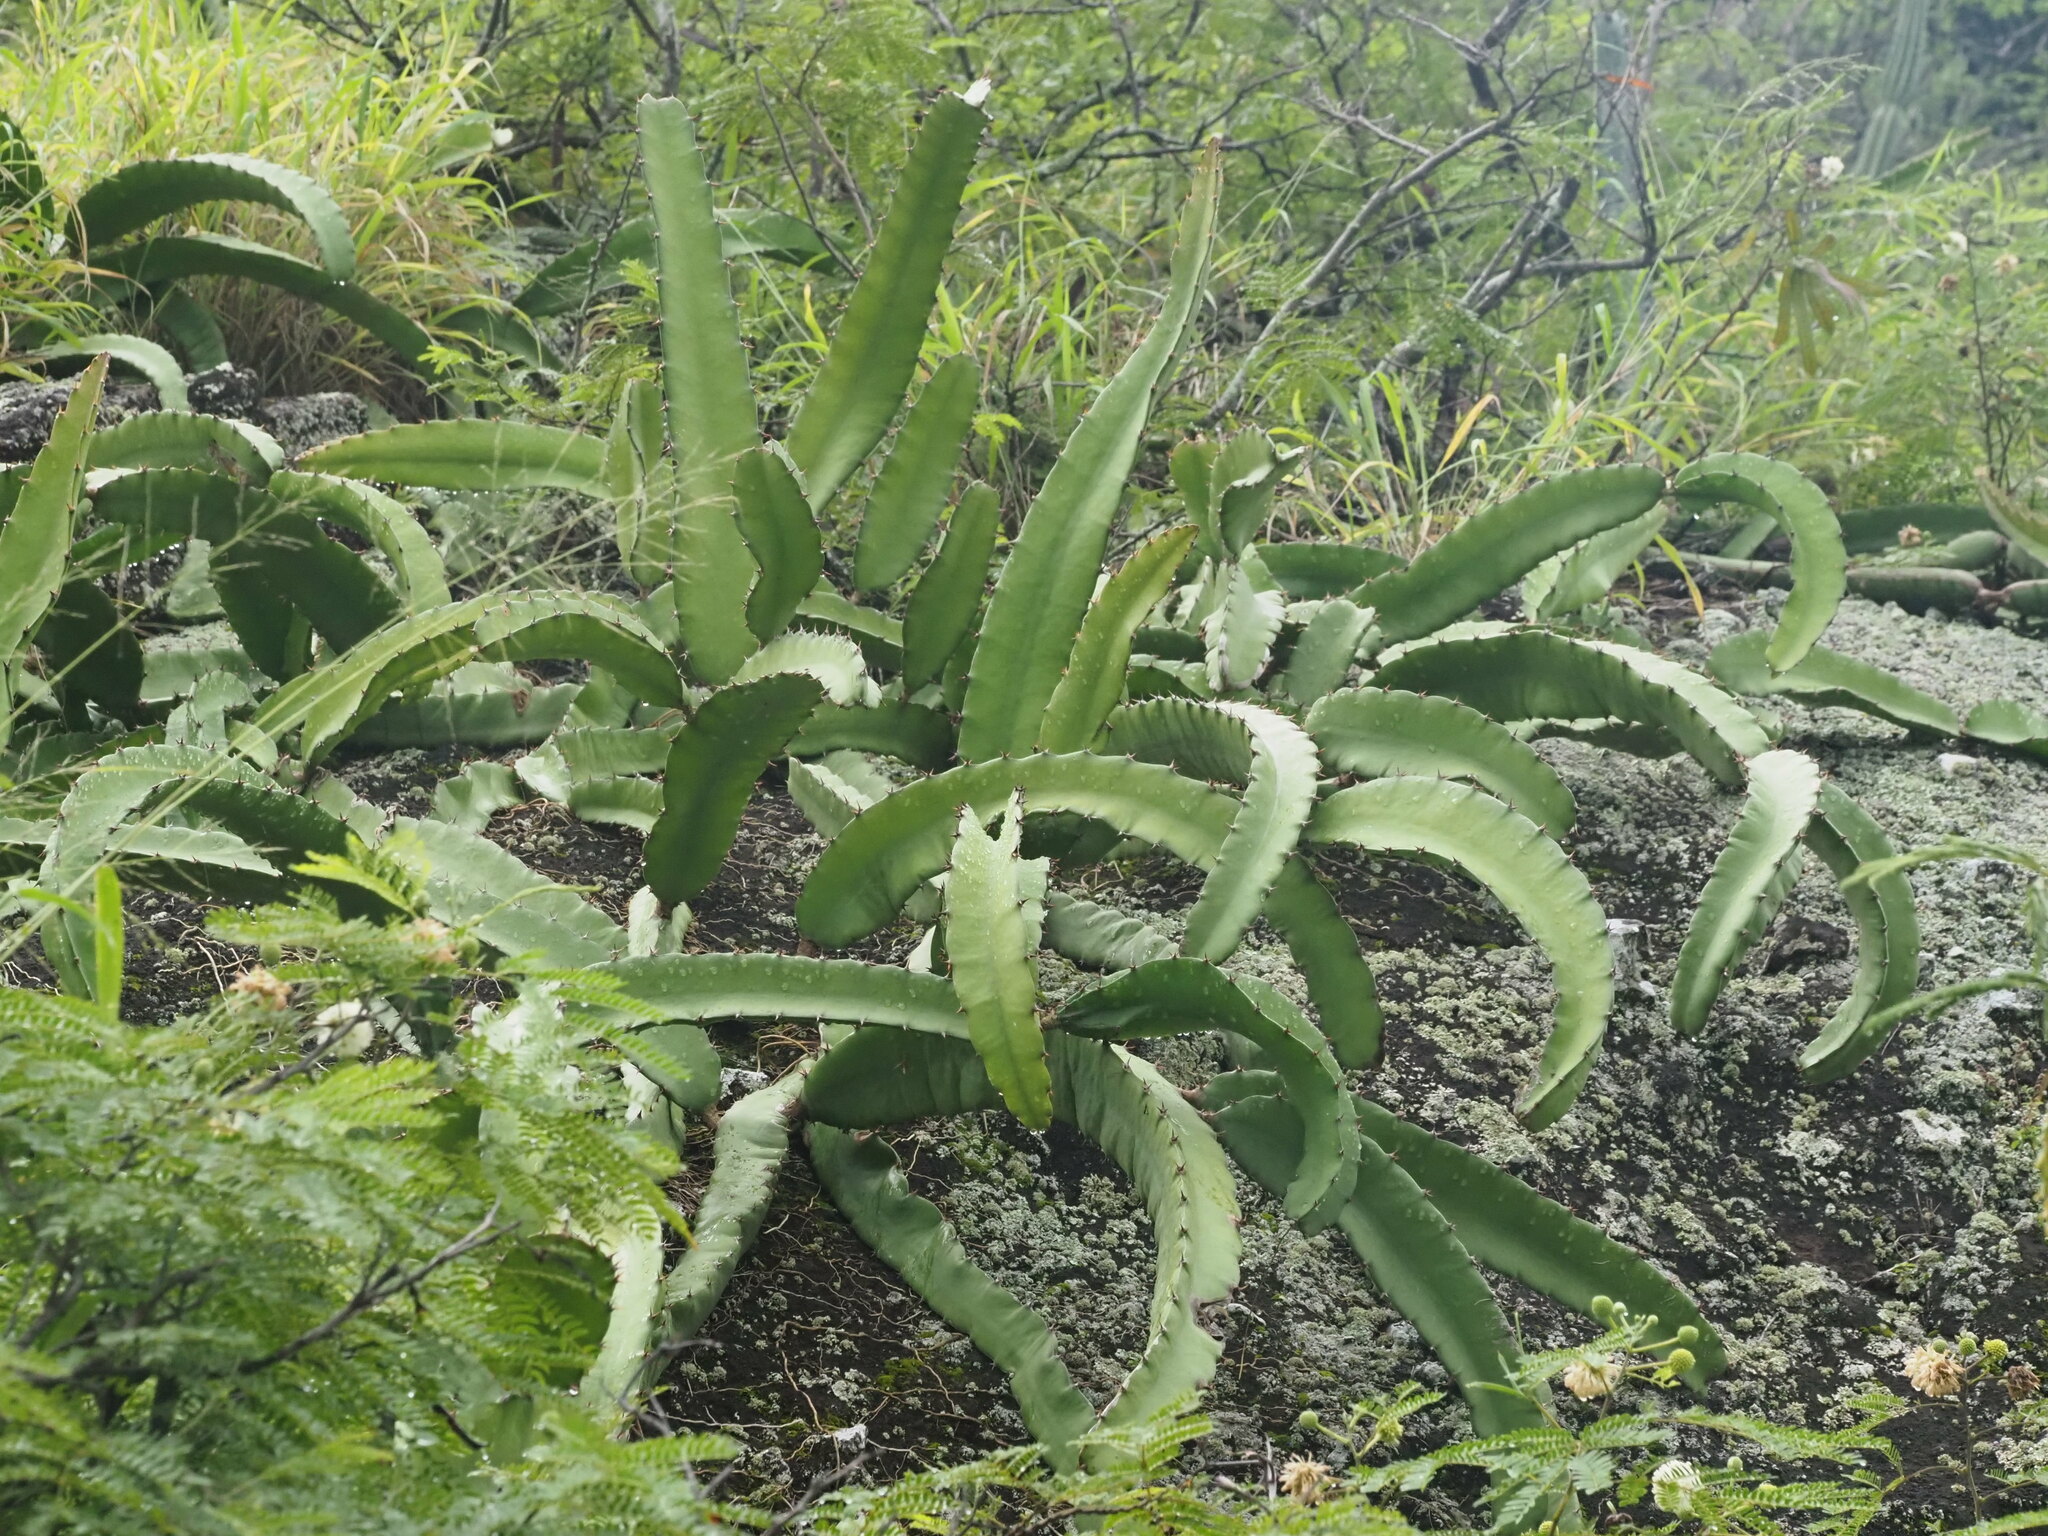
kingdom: Plantae
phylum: Tracheophyta
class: Magnoliopsida
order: Caryophyllales
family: Cactaceae
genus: Selenicereus
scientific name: Selenicereus undatus
